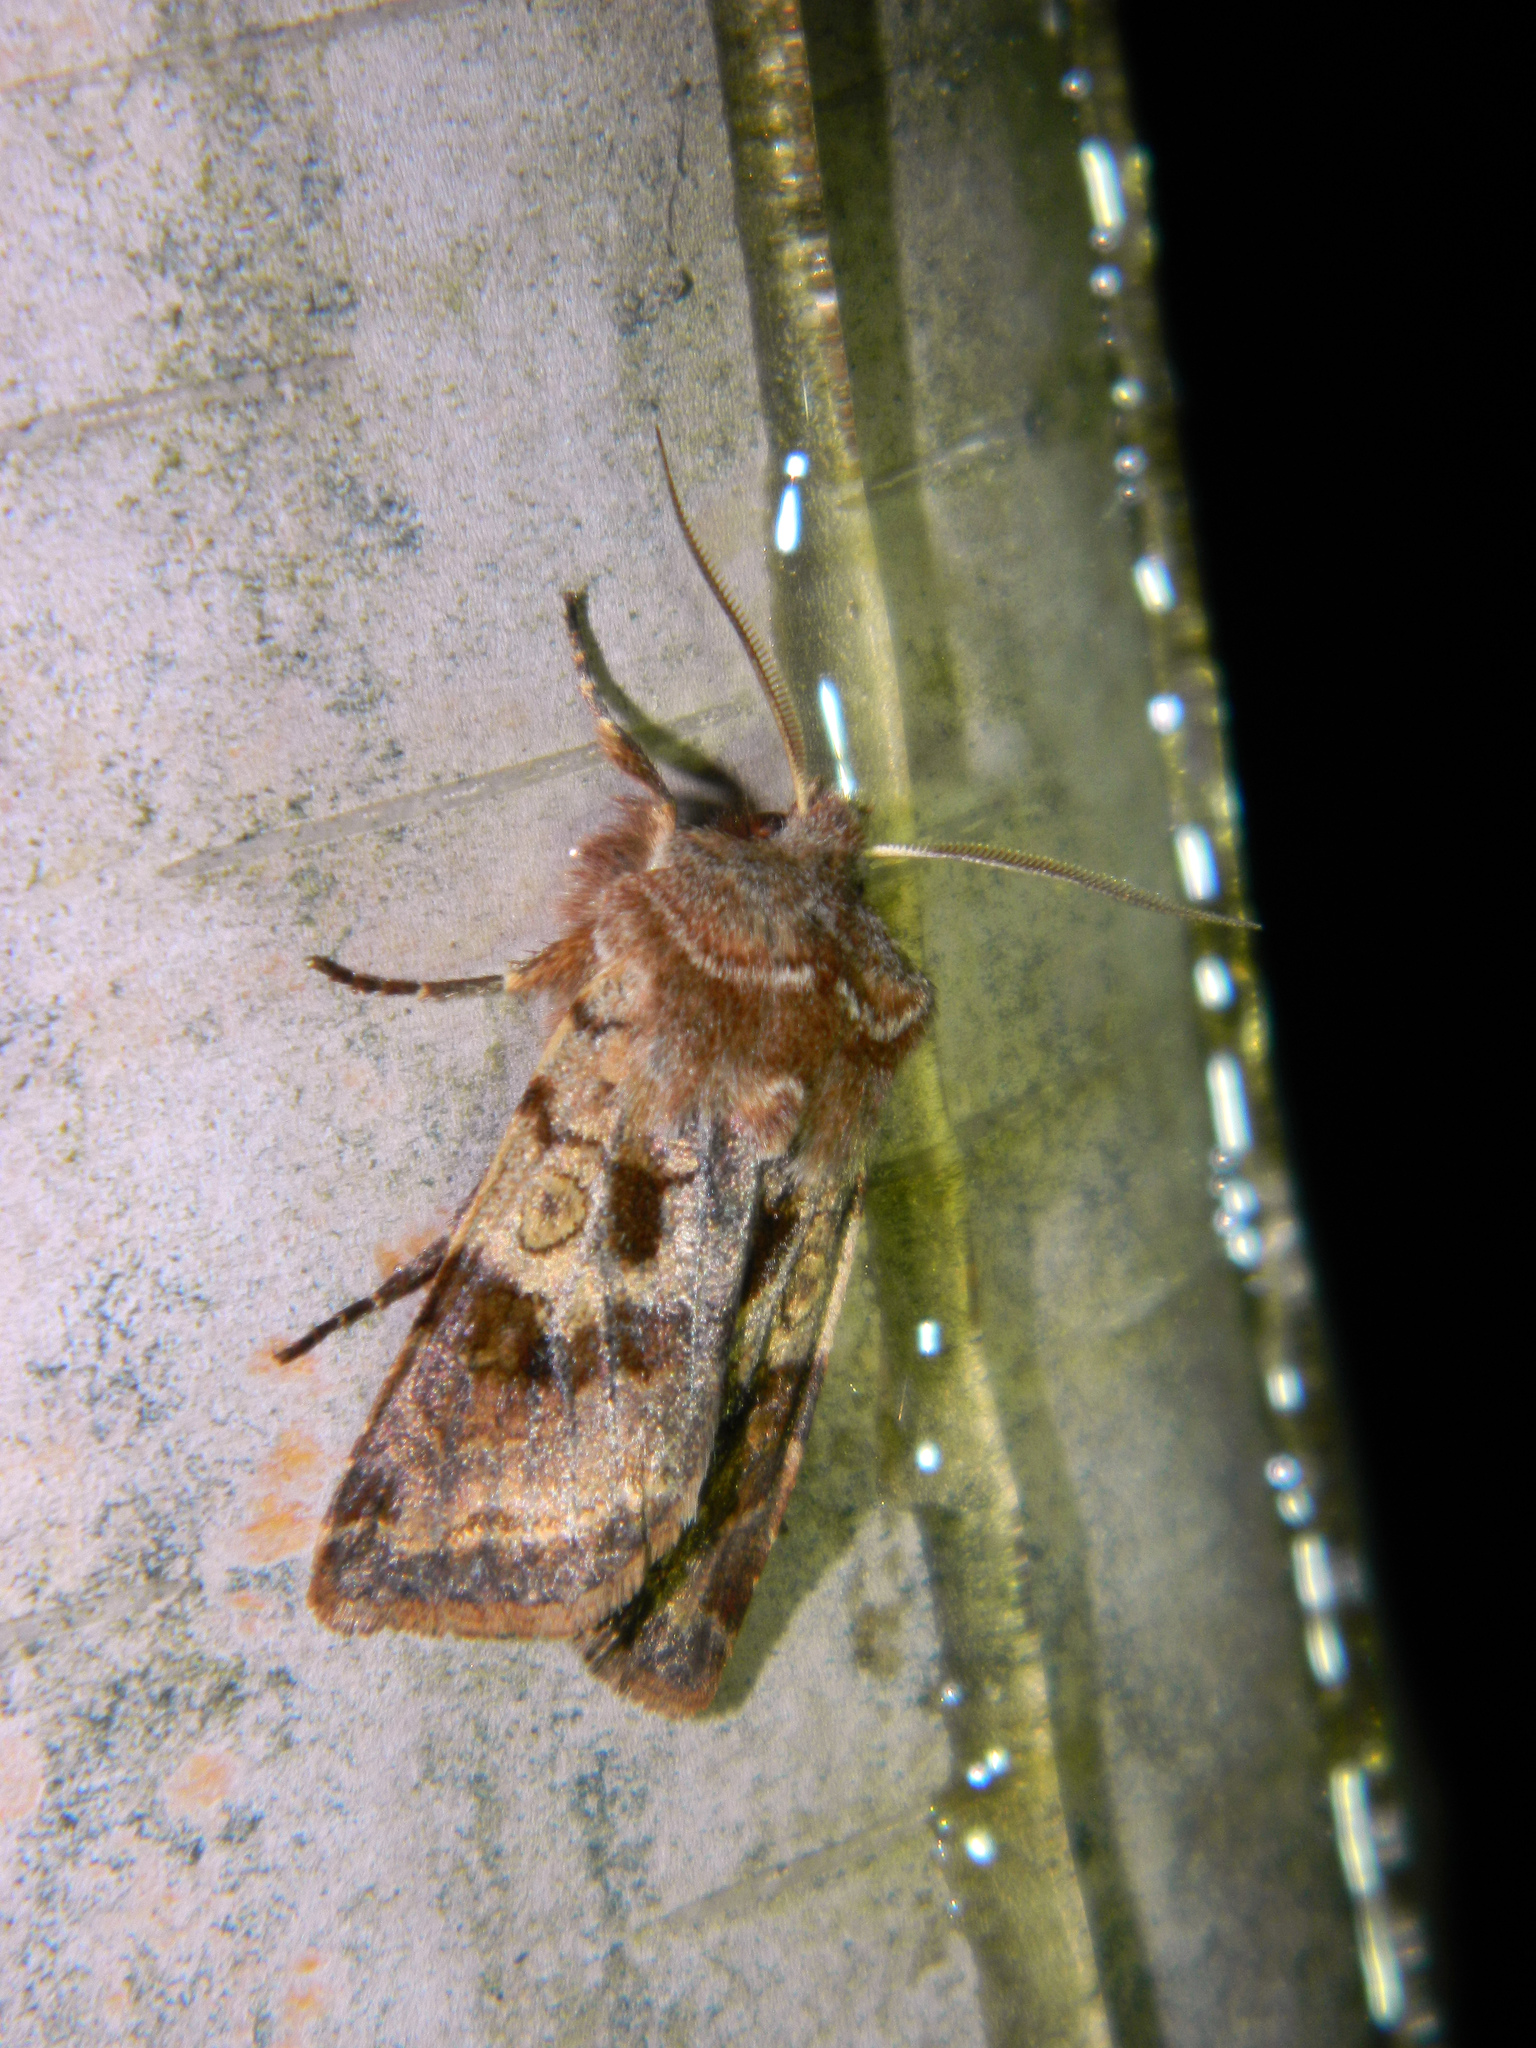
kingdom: Animalia
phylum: Arthropoda
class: Insecta
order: Lepidoptera
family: Noctuidae
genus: Cerastis
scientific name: Cerastis salicarum
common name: Willow dart
